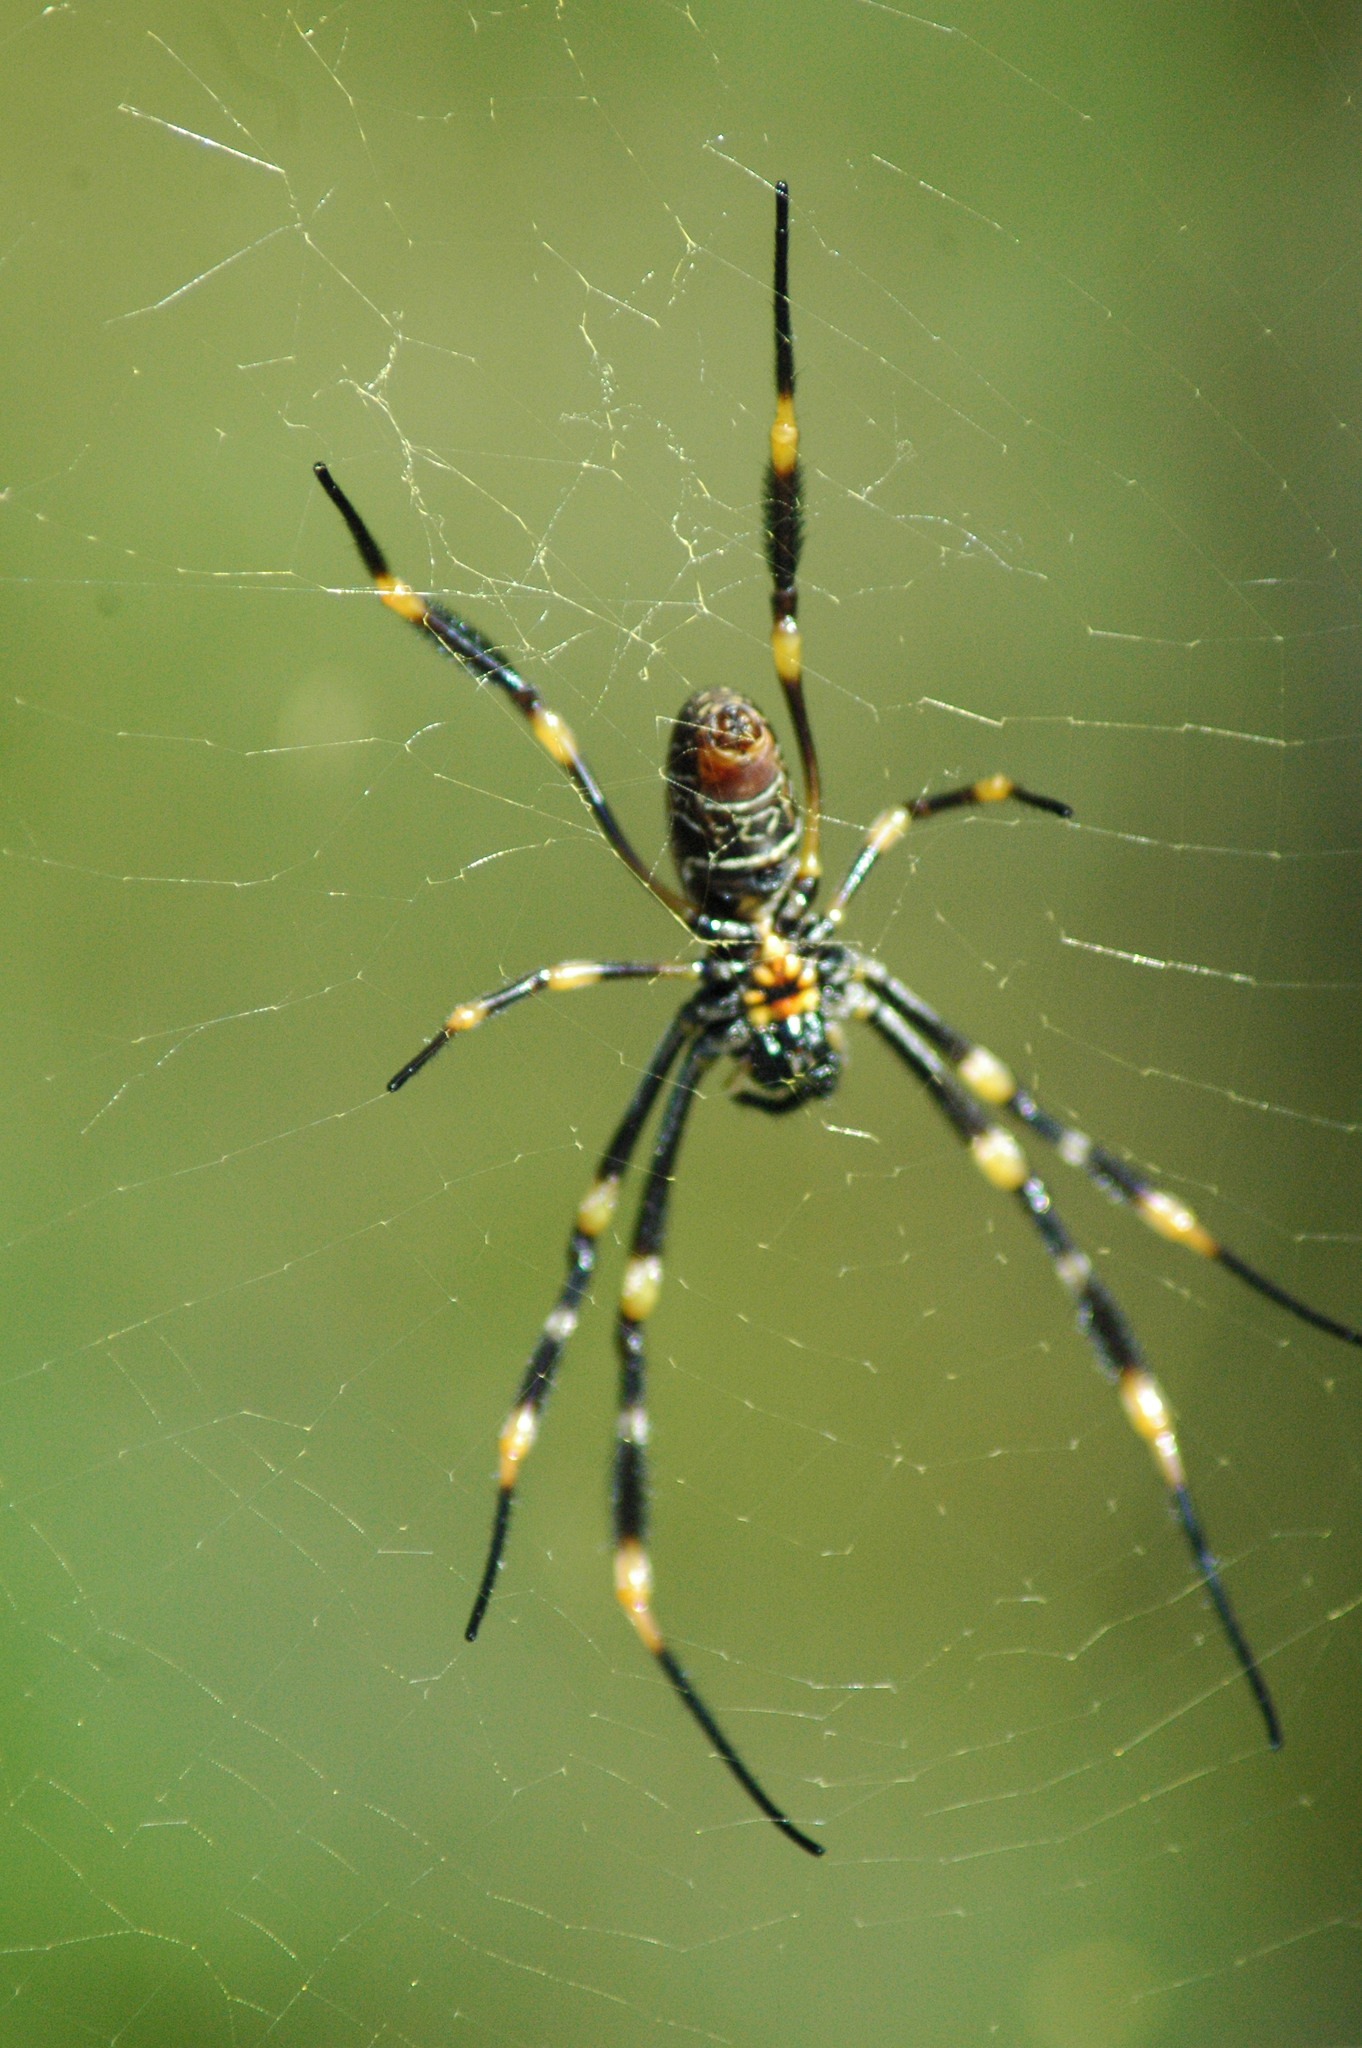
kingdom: Animalia
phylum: Arthropoda
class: Arachnida
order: Araneae
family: Araneidae
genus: Trichonephila
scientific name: Trichonephila plumipes
